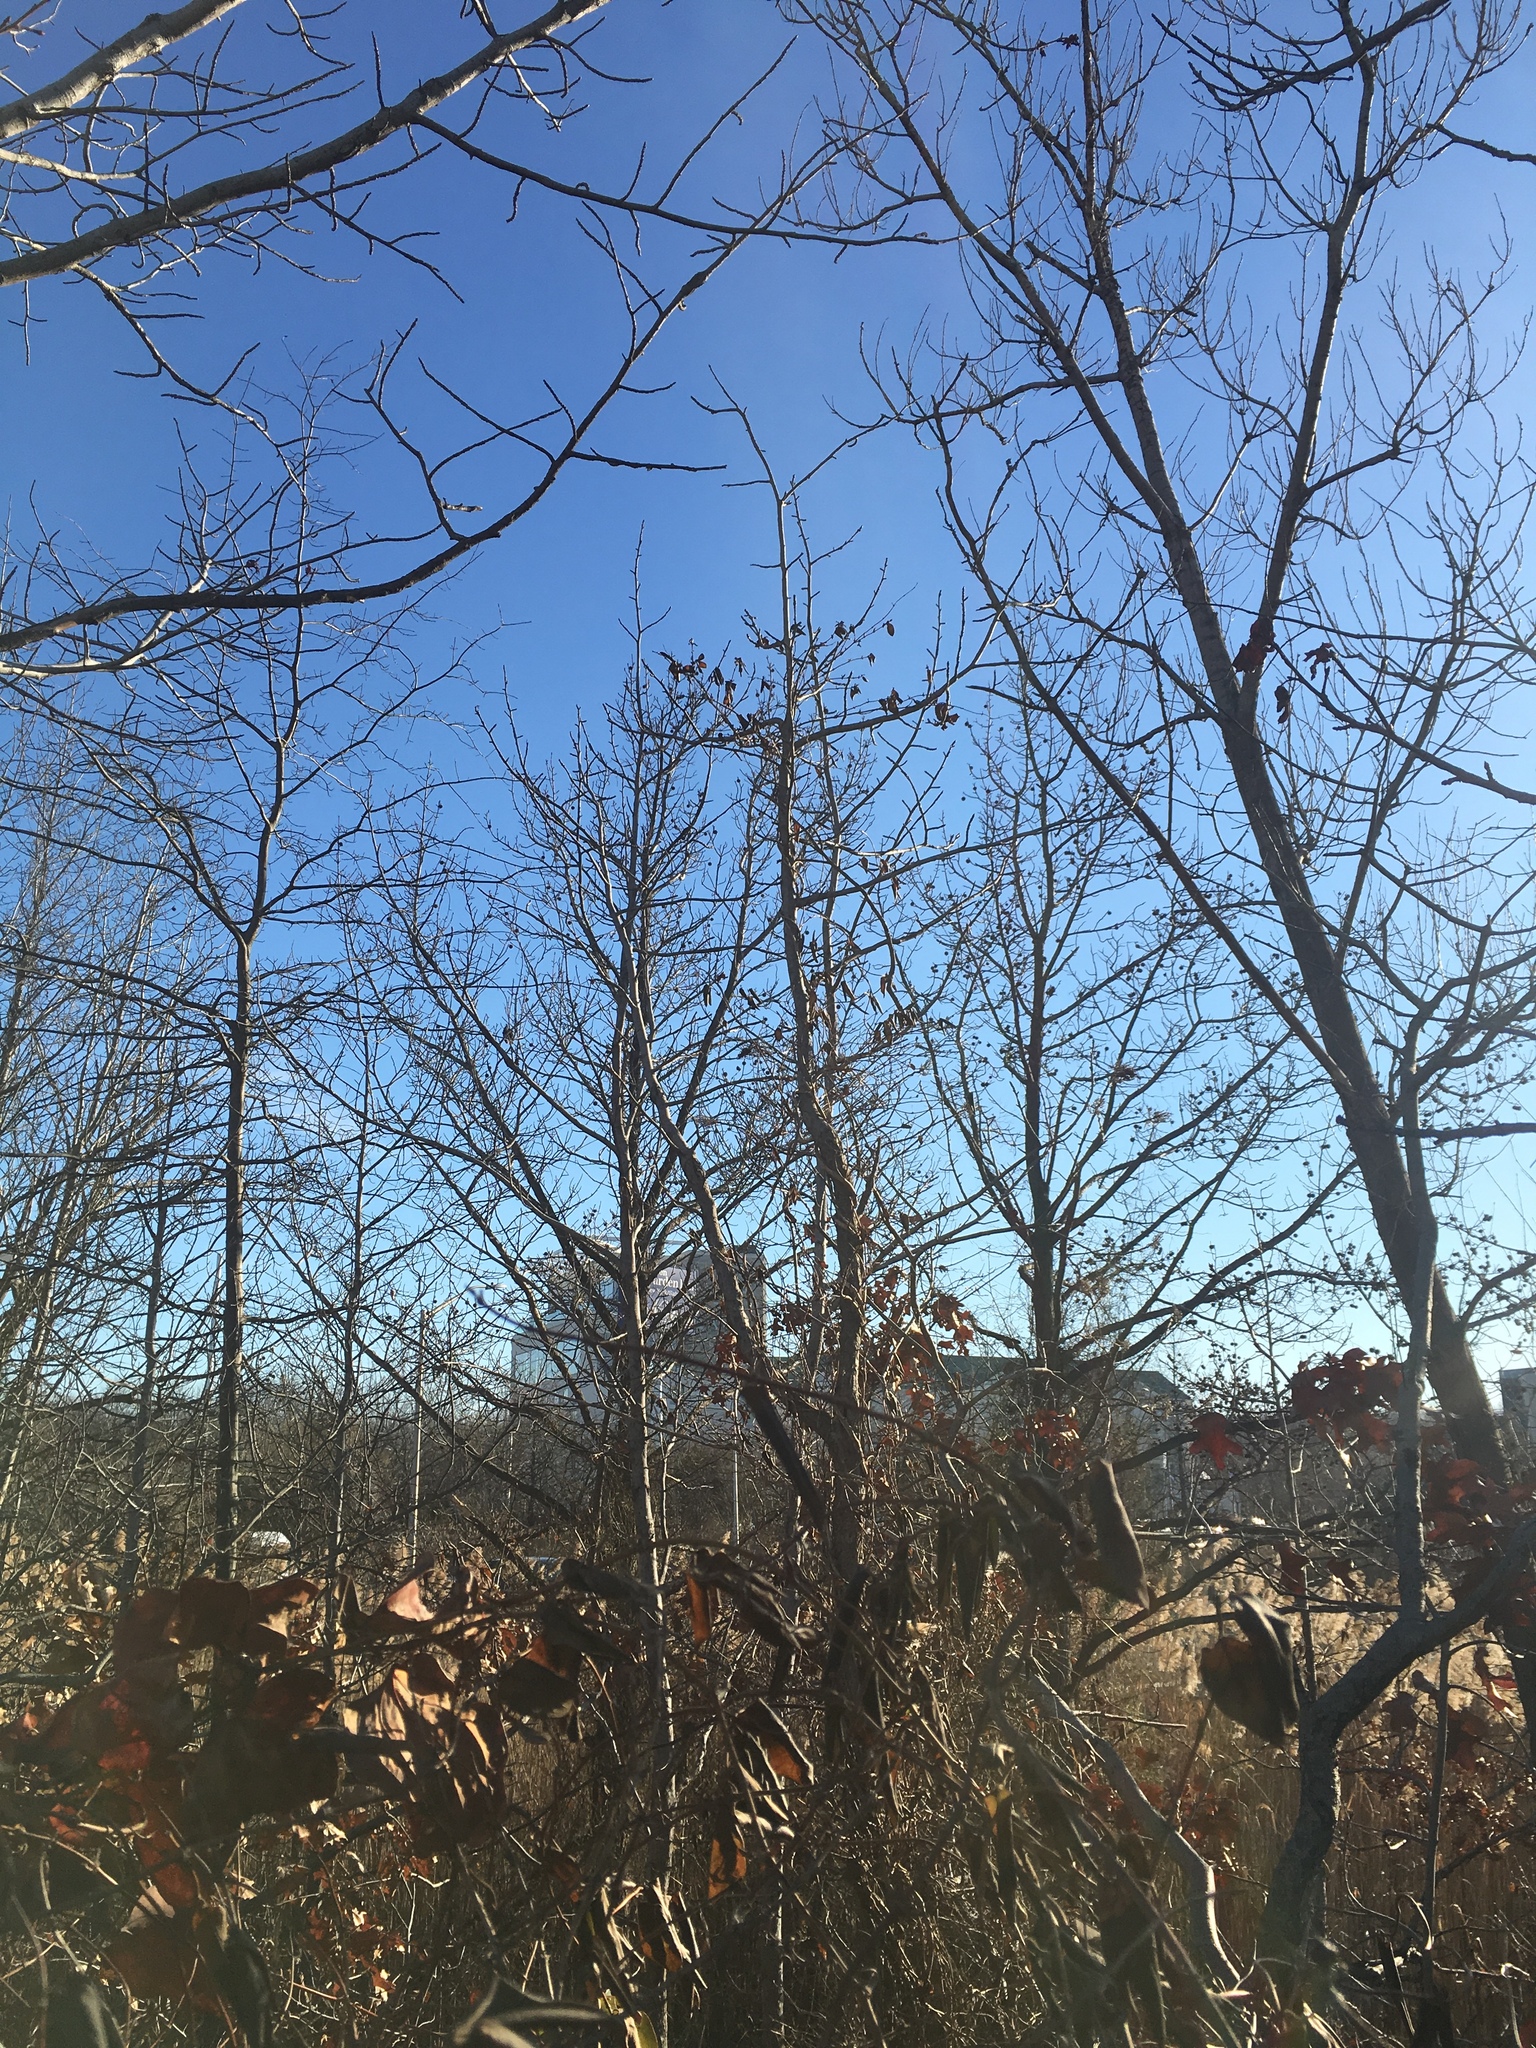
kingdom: Plantae
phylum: Tracheophyta
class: Magnoliopsida
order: Saxifragales
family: Altingiaceae
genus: Liquidambar
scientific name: Liquidambar styraciflua
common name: Sweet gum
